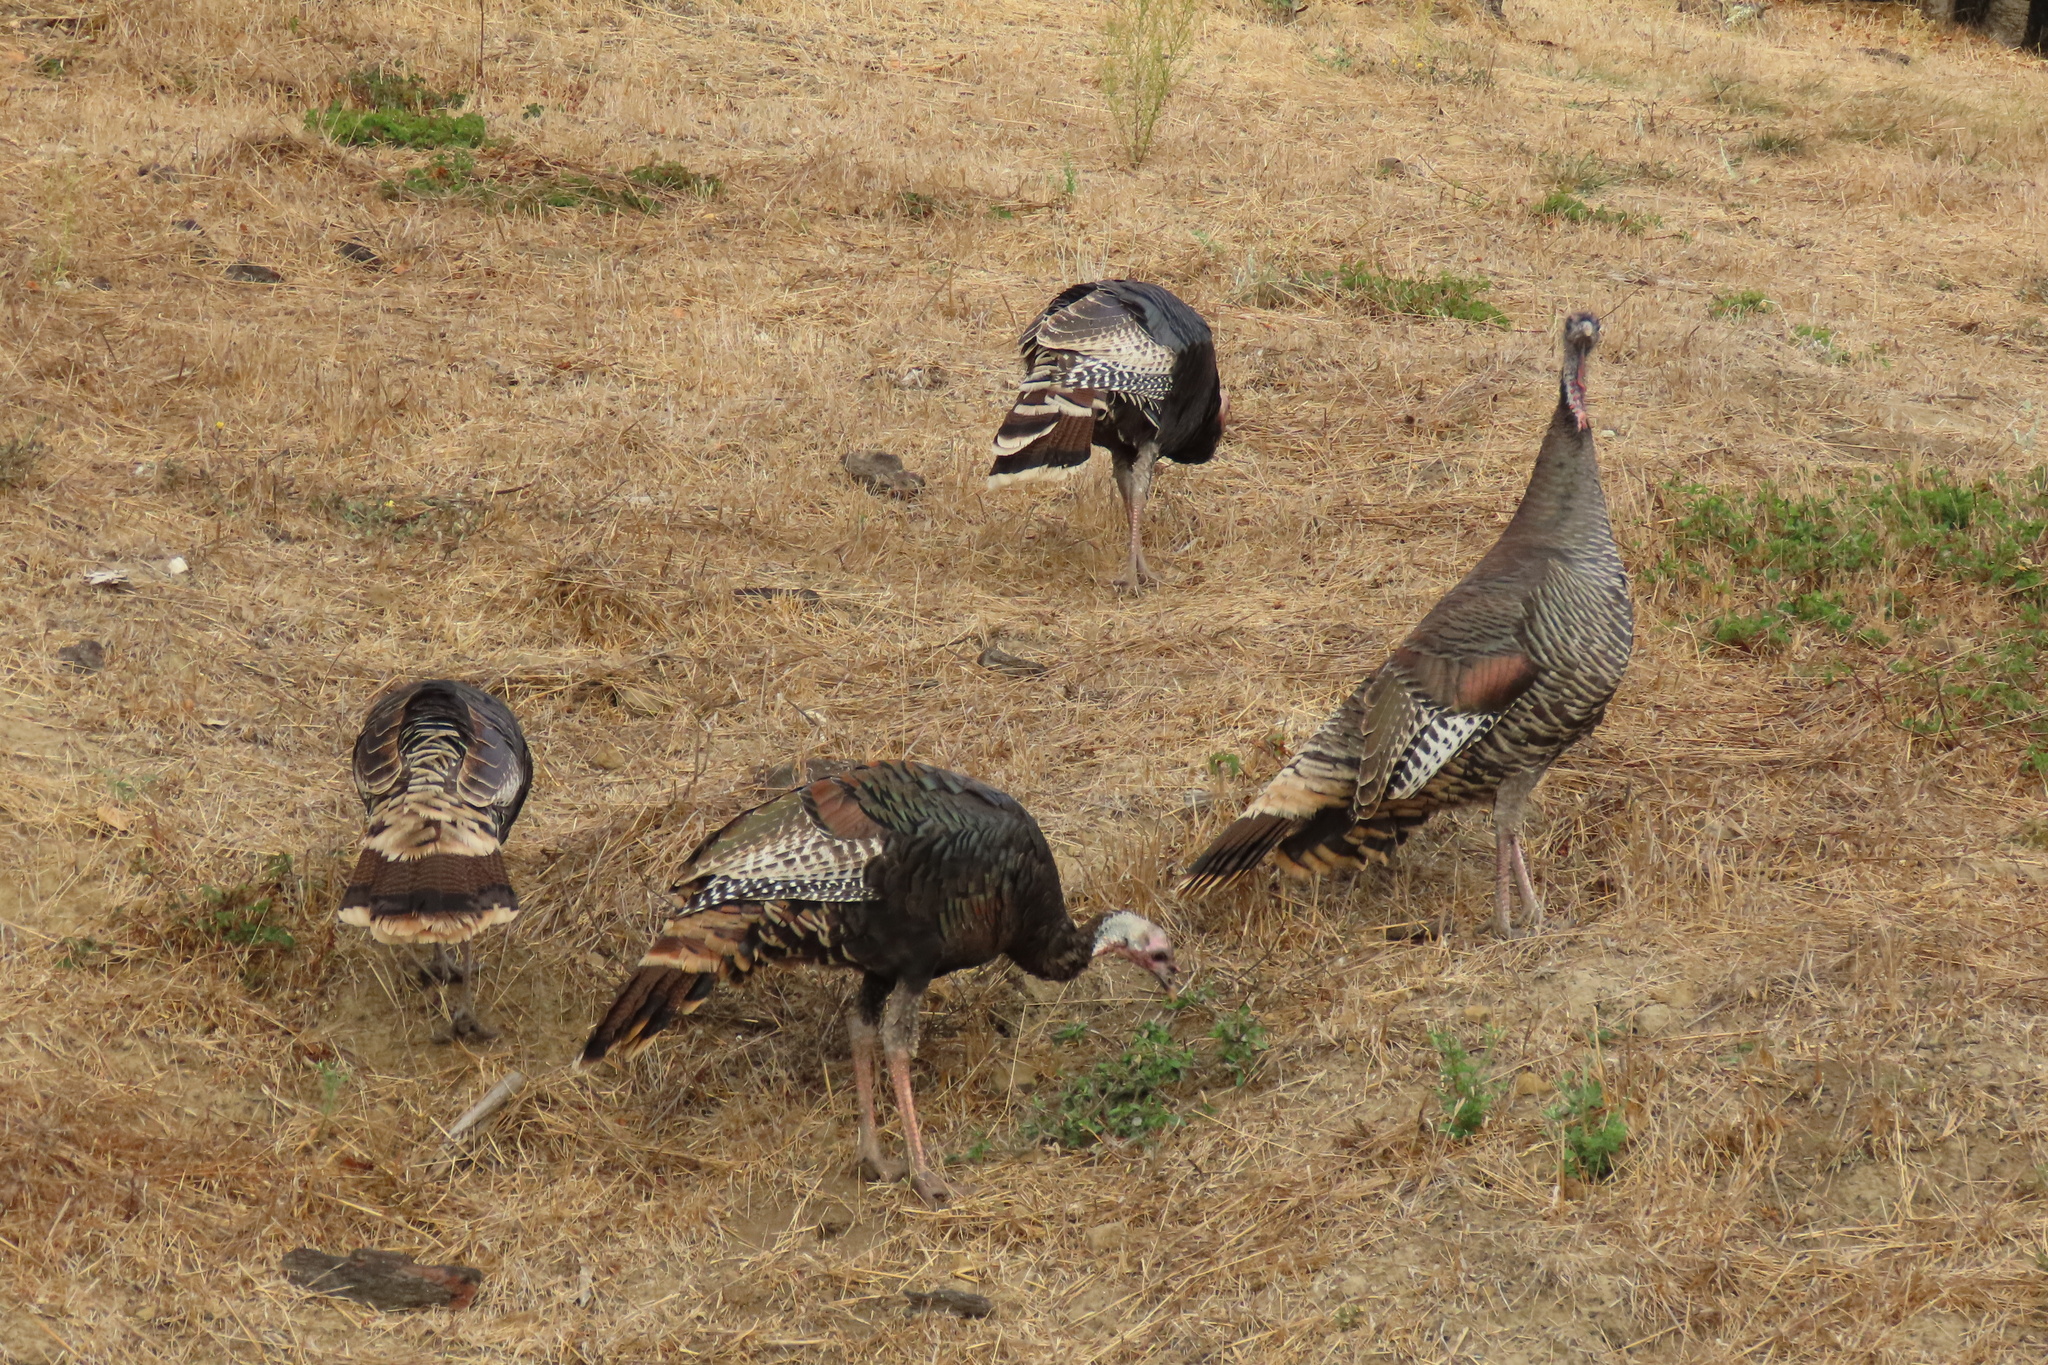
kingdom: Animalia
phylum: Chordata
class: Aves
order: Galliformes
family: Phasianidae
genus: Meleagris
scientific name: Meleagris gallopavo
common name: Wild turkey
